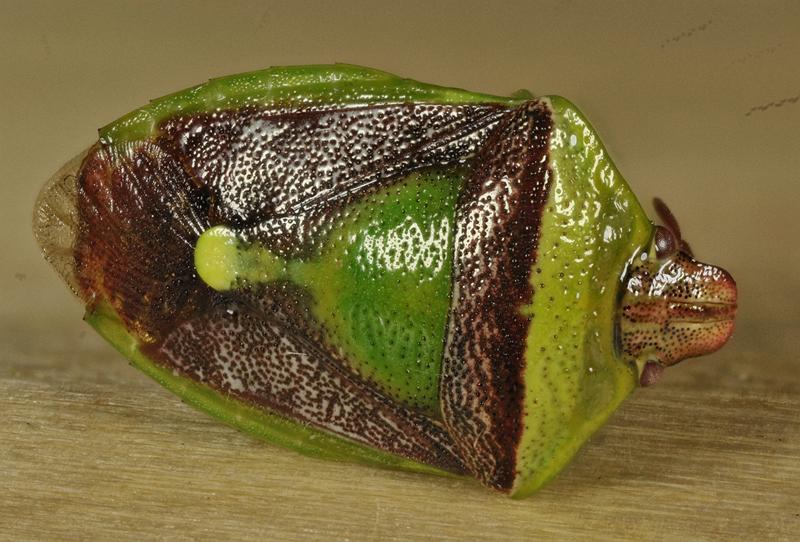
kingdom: Animalia
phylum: Arthropoda
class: Insecta
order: Hemiptera
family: Pentatomidae
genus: Banasa
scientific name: Banasa dimidiata
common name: Green burgundy stink bug
